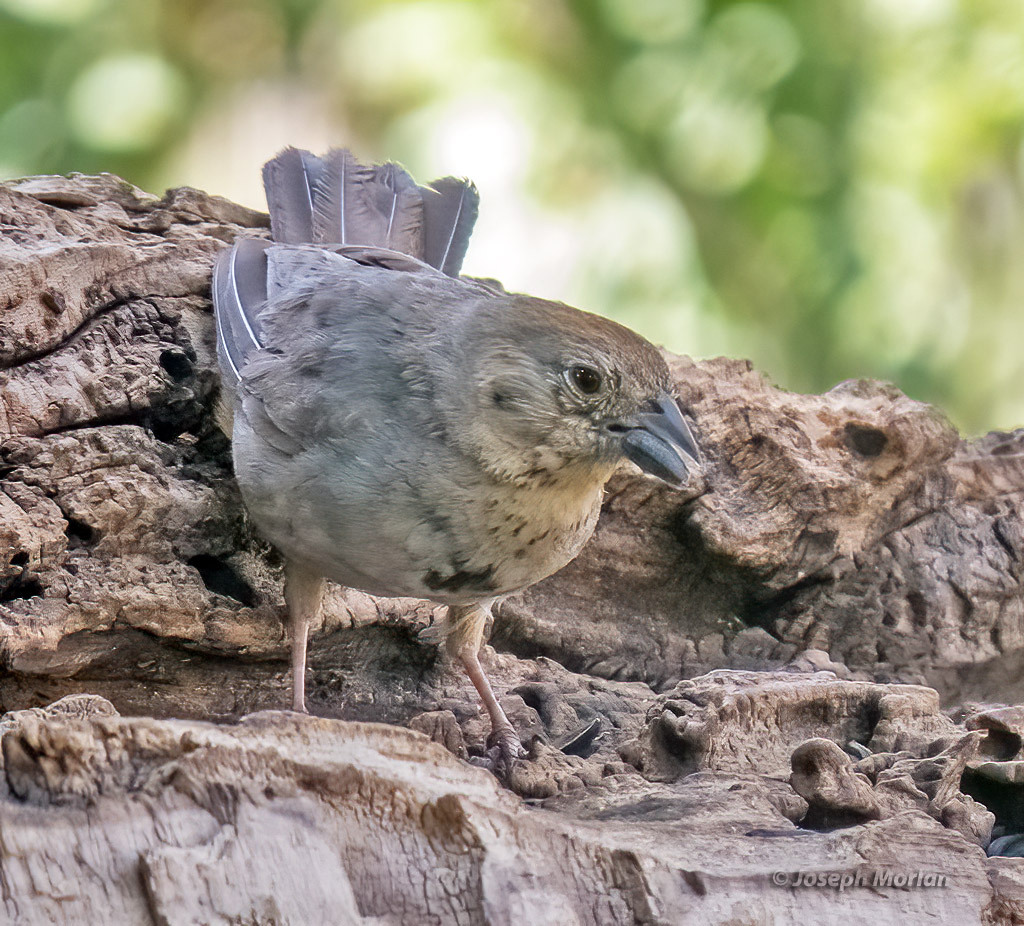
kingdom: Animalia
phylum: Chordata
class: Aves
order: Passeriformes
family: Passerellidae
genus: Melozone
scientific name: Melozone fusca
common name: Canyon towhee
